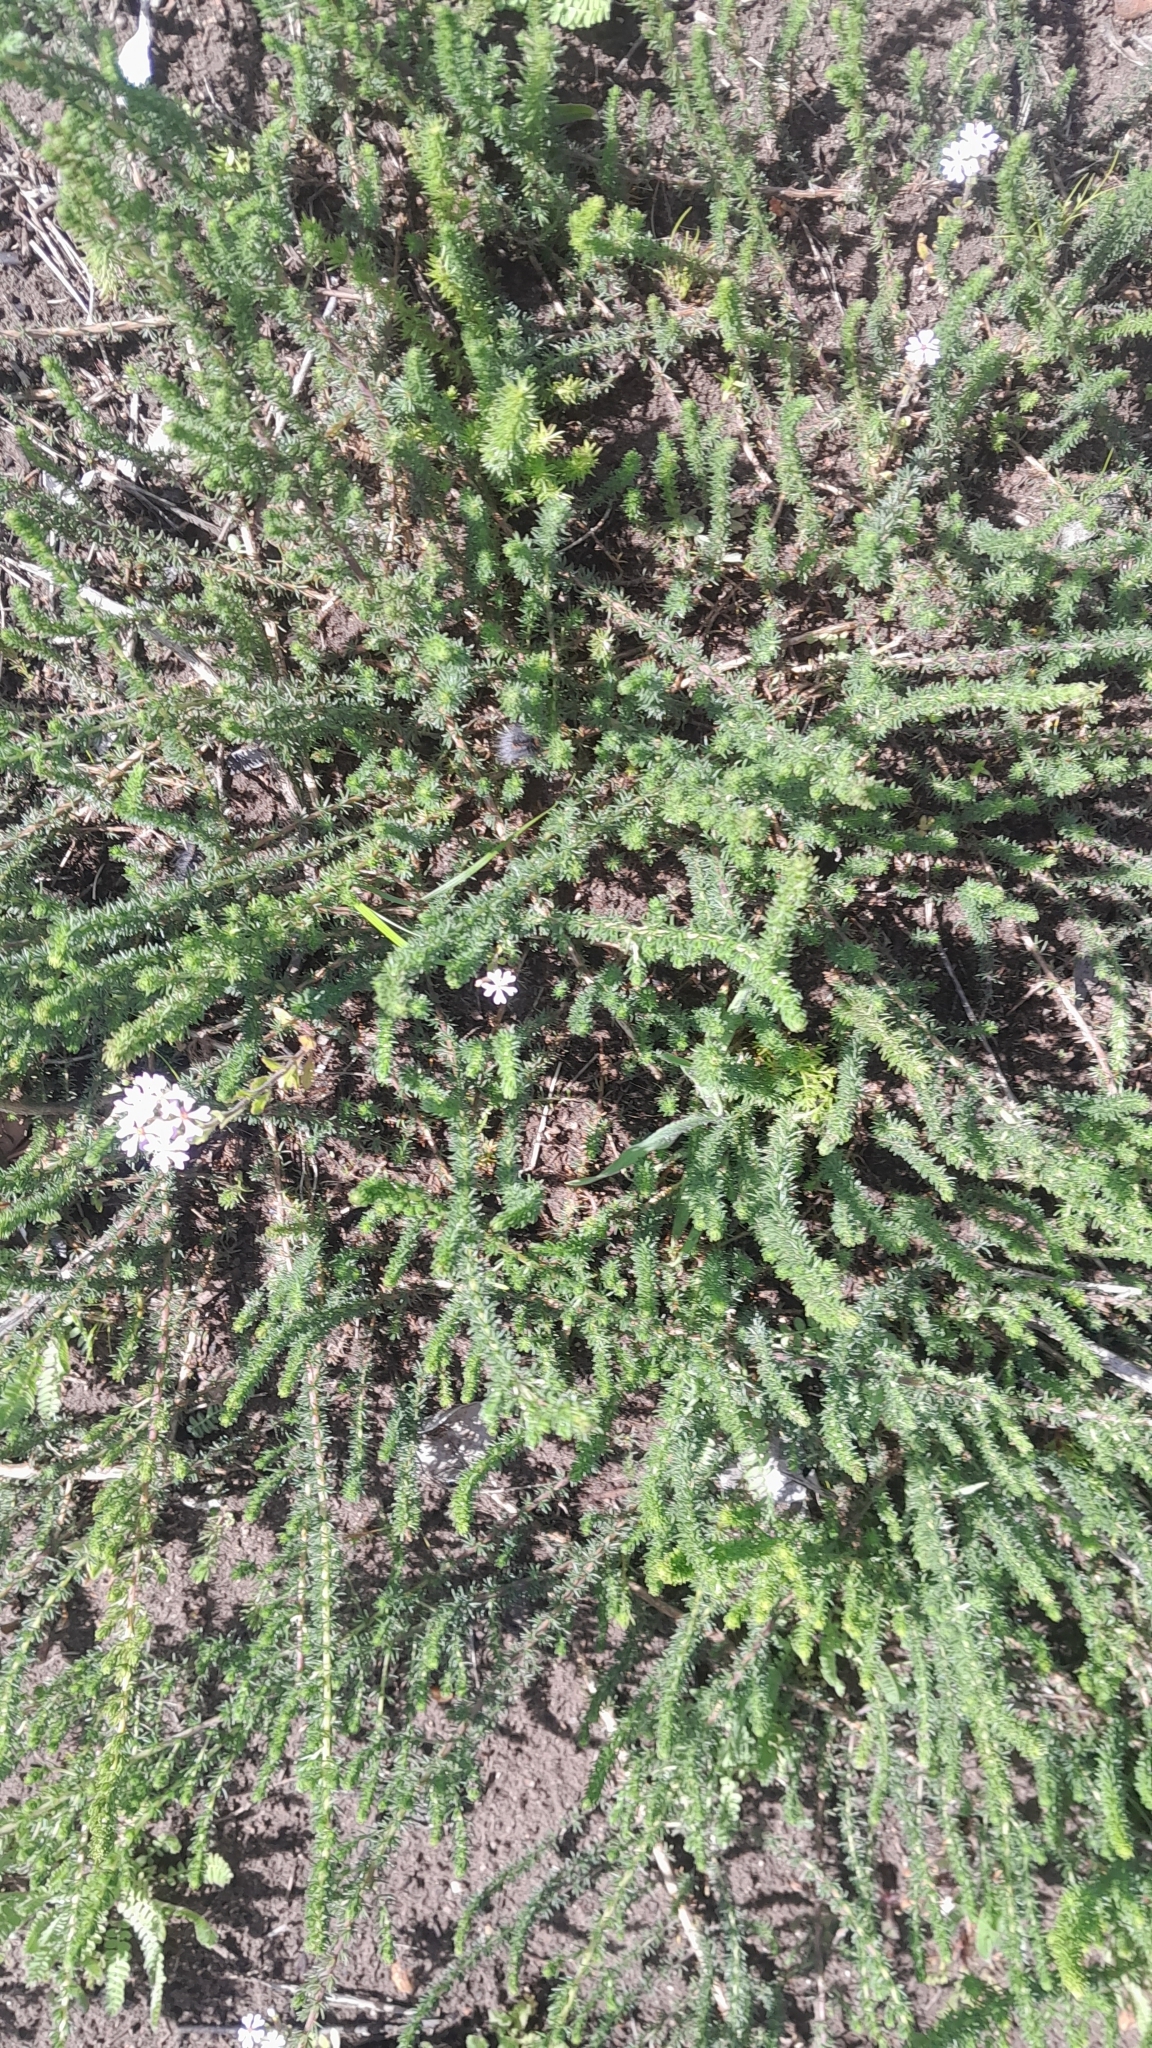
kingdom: Plantae
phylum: Tracheophyta
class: Magnoliopsida
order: Lamiales
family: Scrophulariaceae
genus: Zaluzianskya
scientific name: Zaluzianskya villosa
